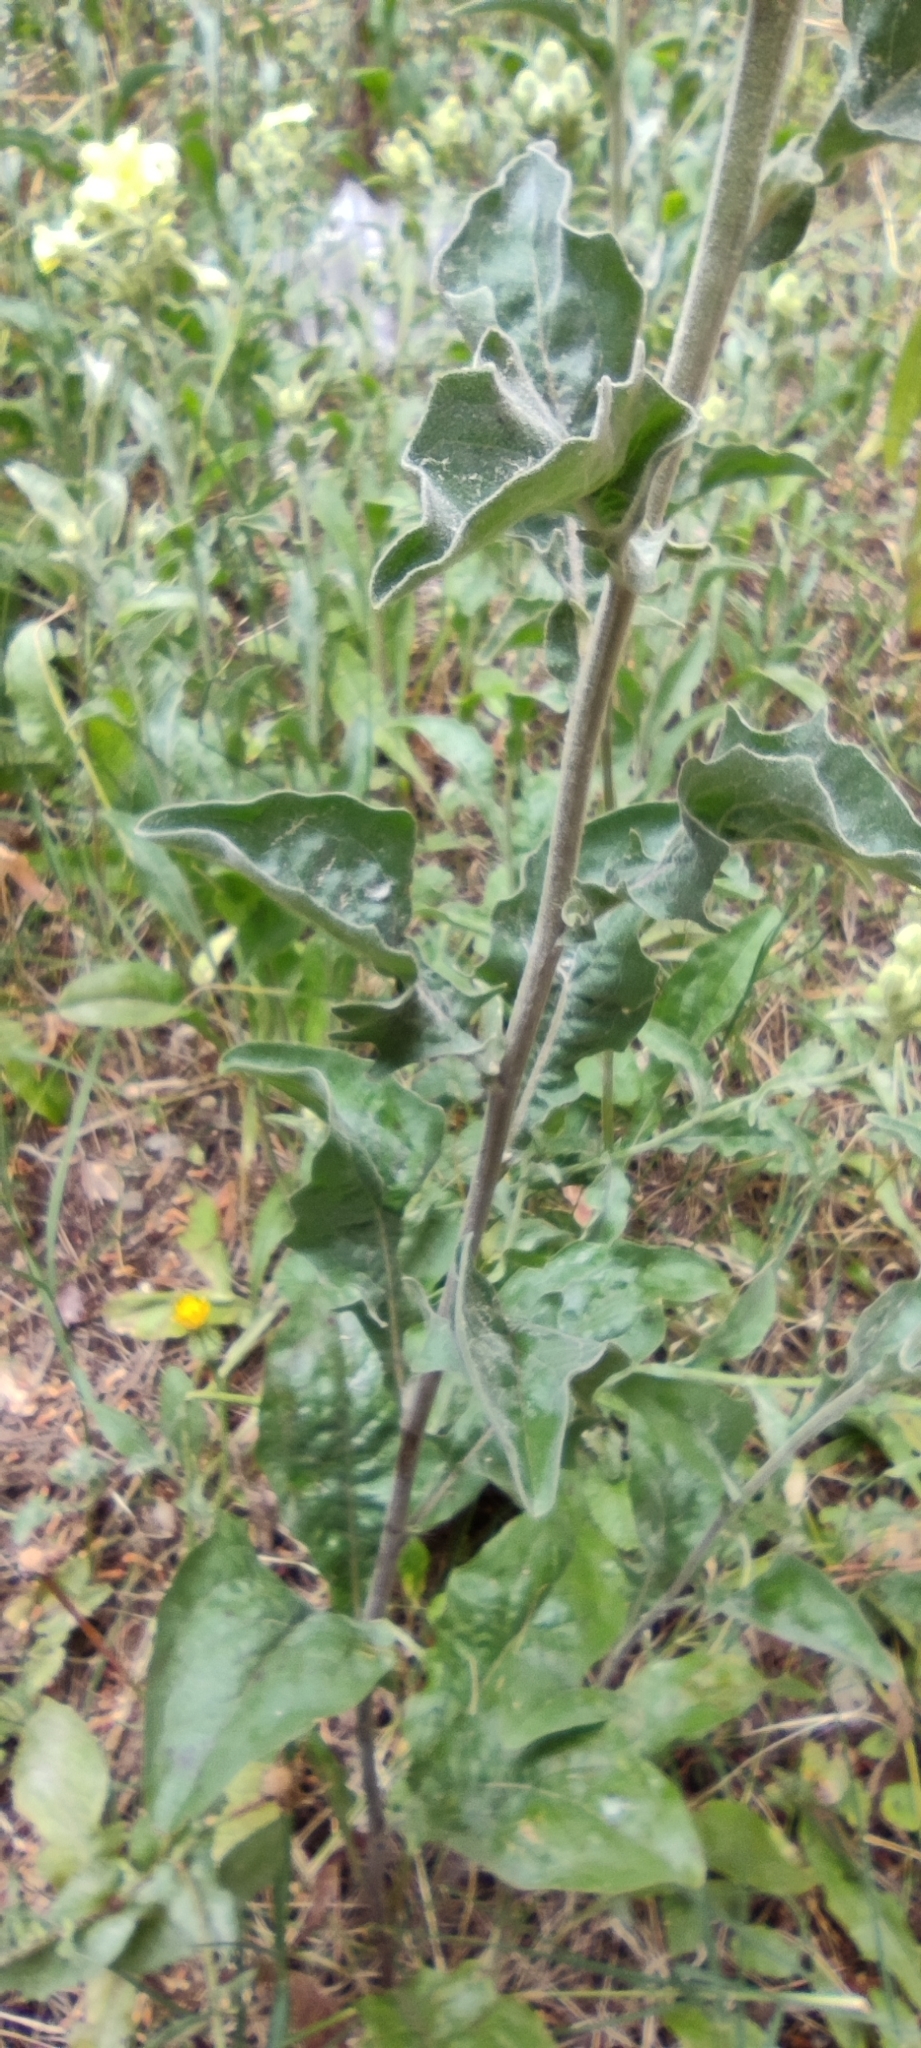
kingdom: Plantae
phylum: Tracheophyta
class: Magnoliopsida
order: Asterales
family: Asteraceae
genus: Andryala
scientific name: Andryala integrifolia
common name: Common andryala
